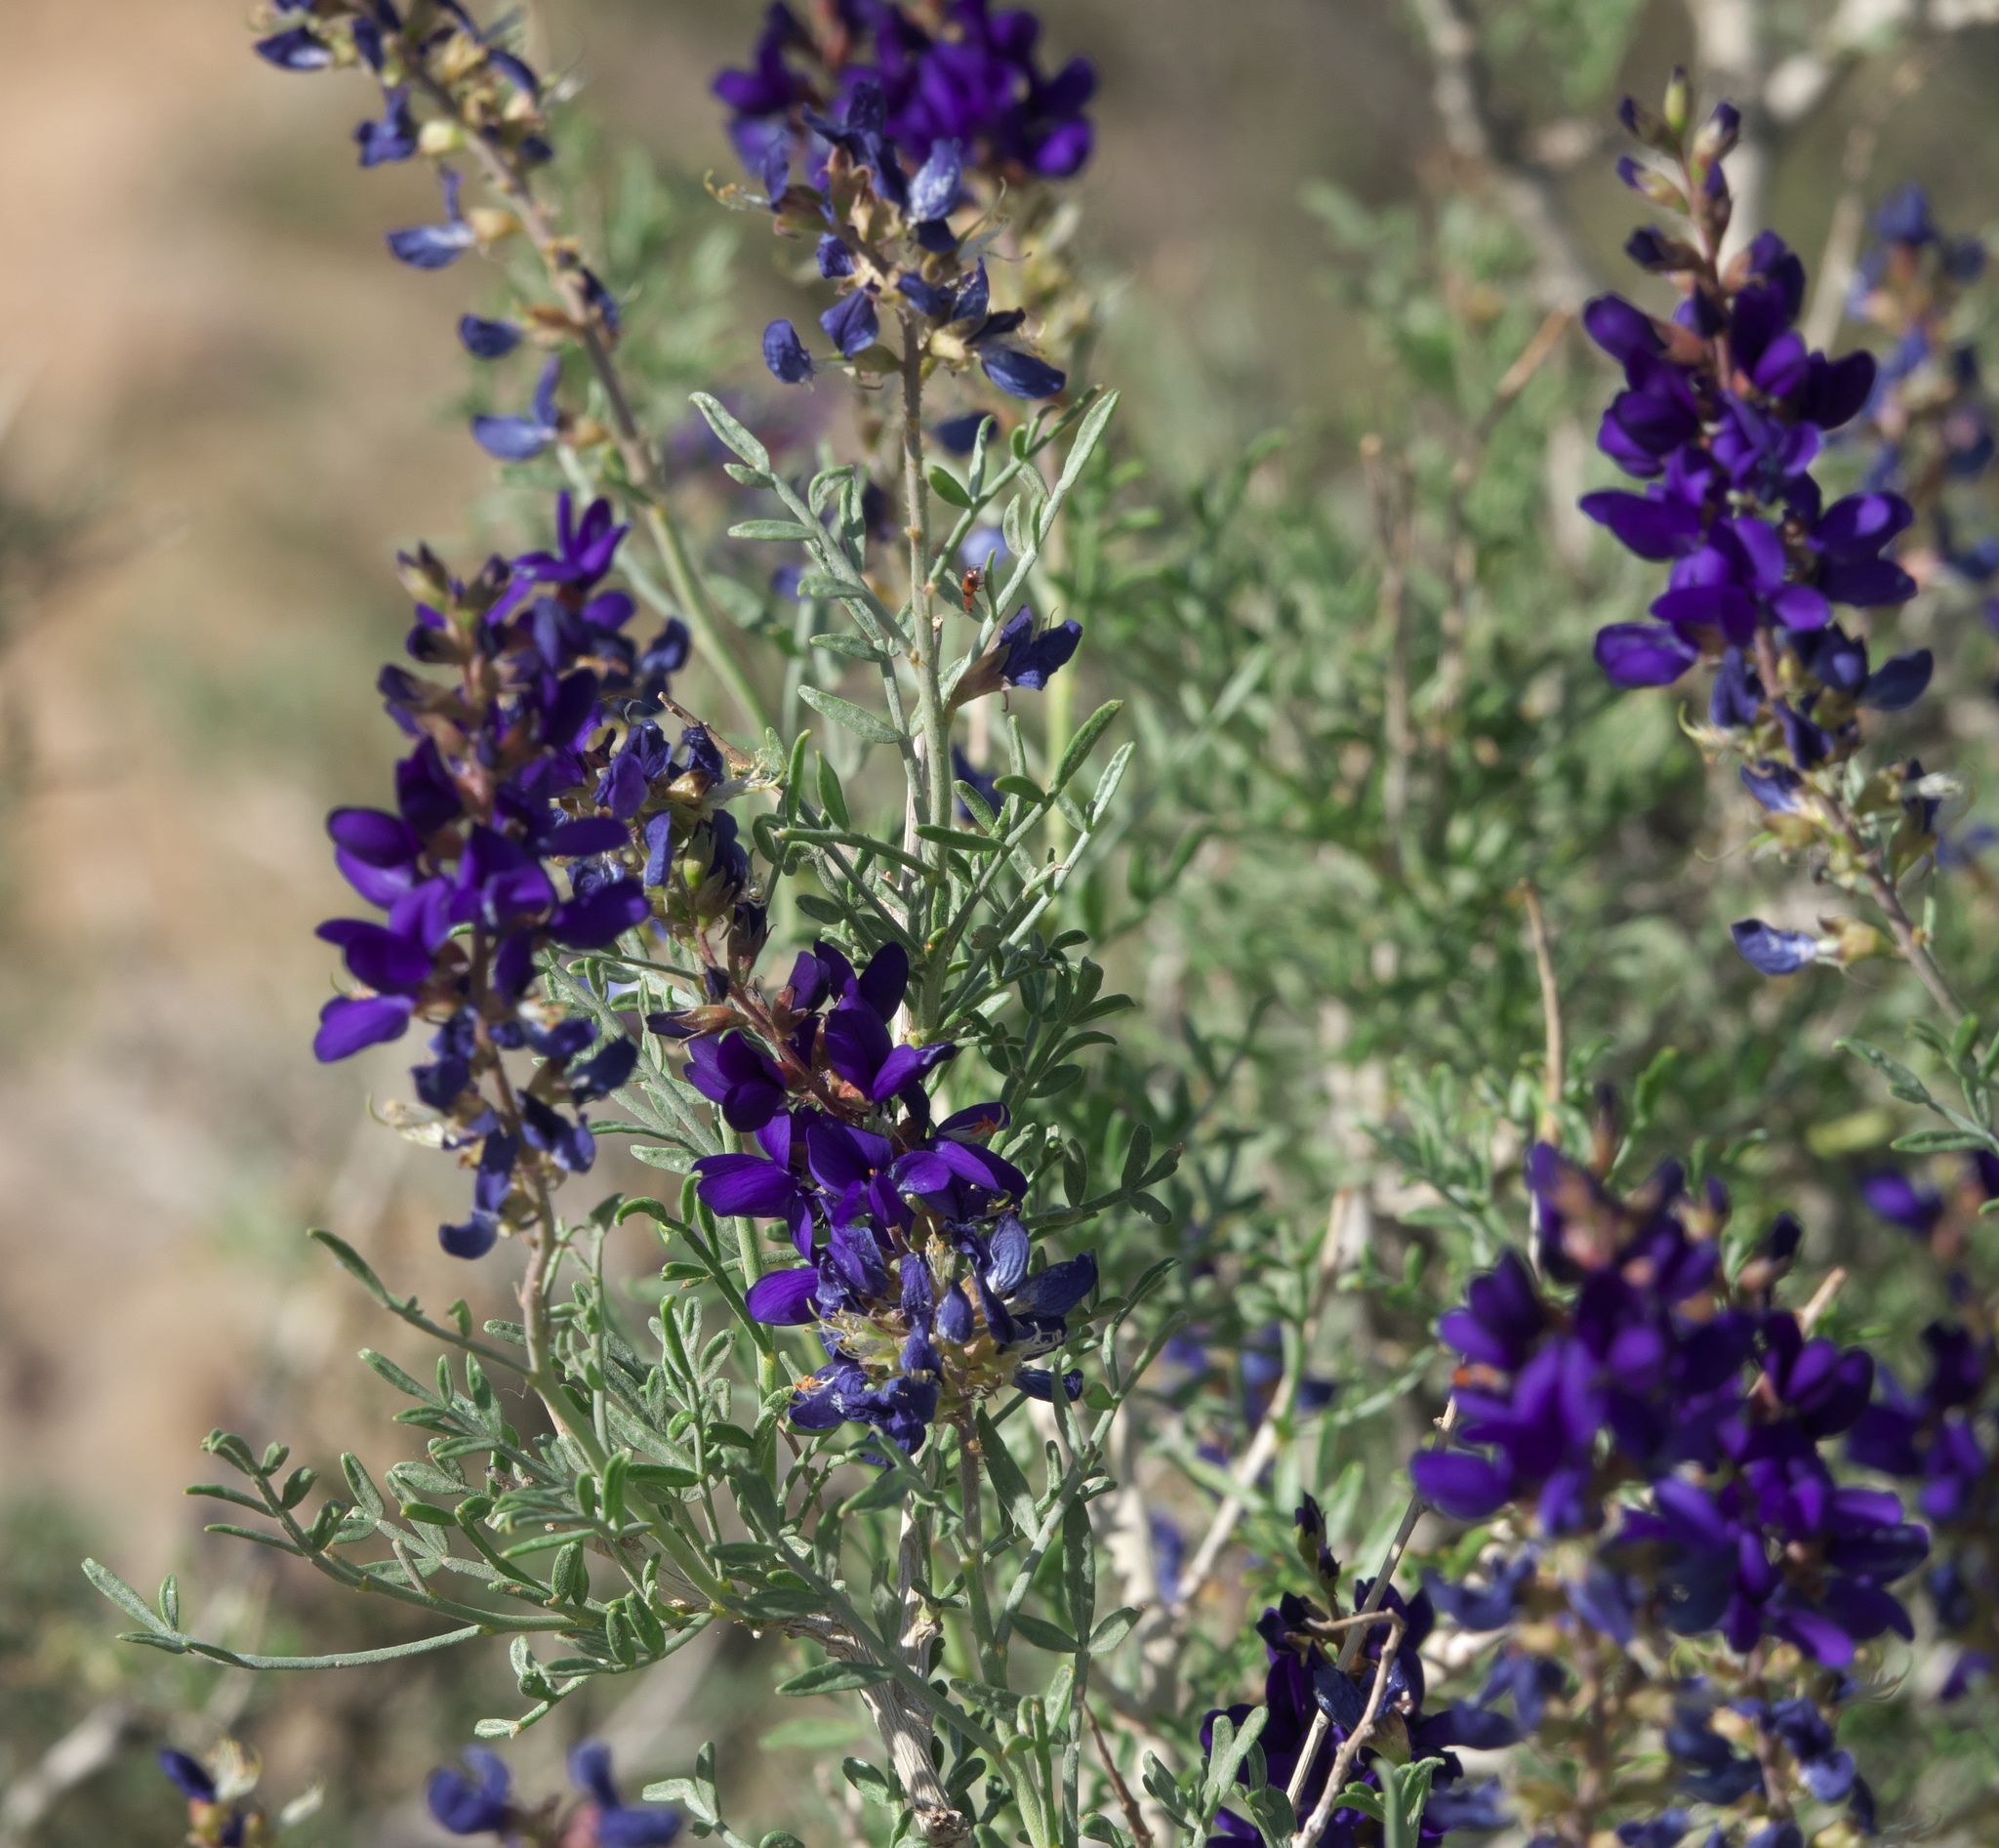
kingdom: Plantae
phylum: Tracheophyta
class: Magnoliopsida
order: Fabales
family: Fabaceae
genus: Psorothamnus
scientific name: Psorothamnus arborescens
